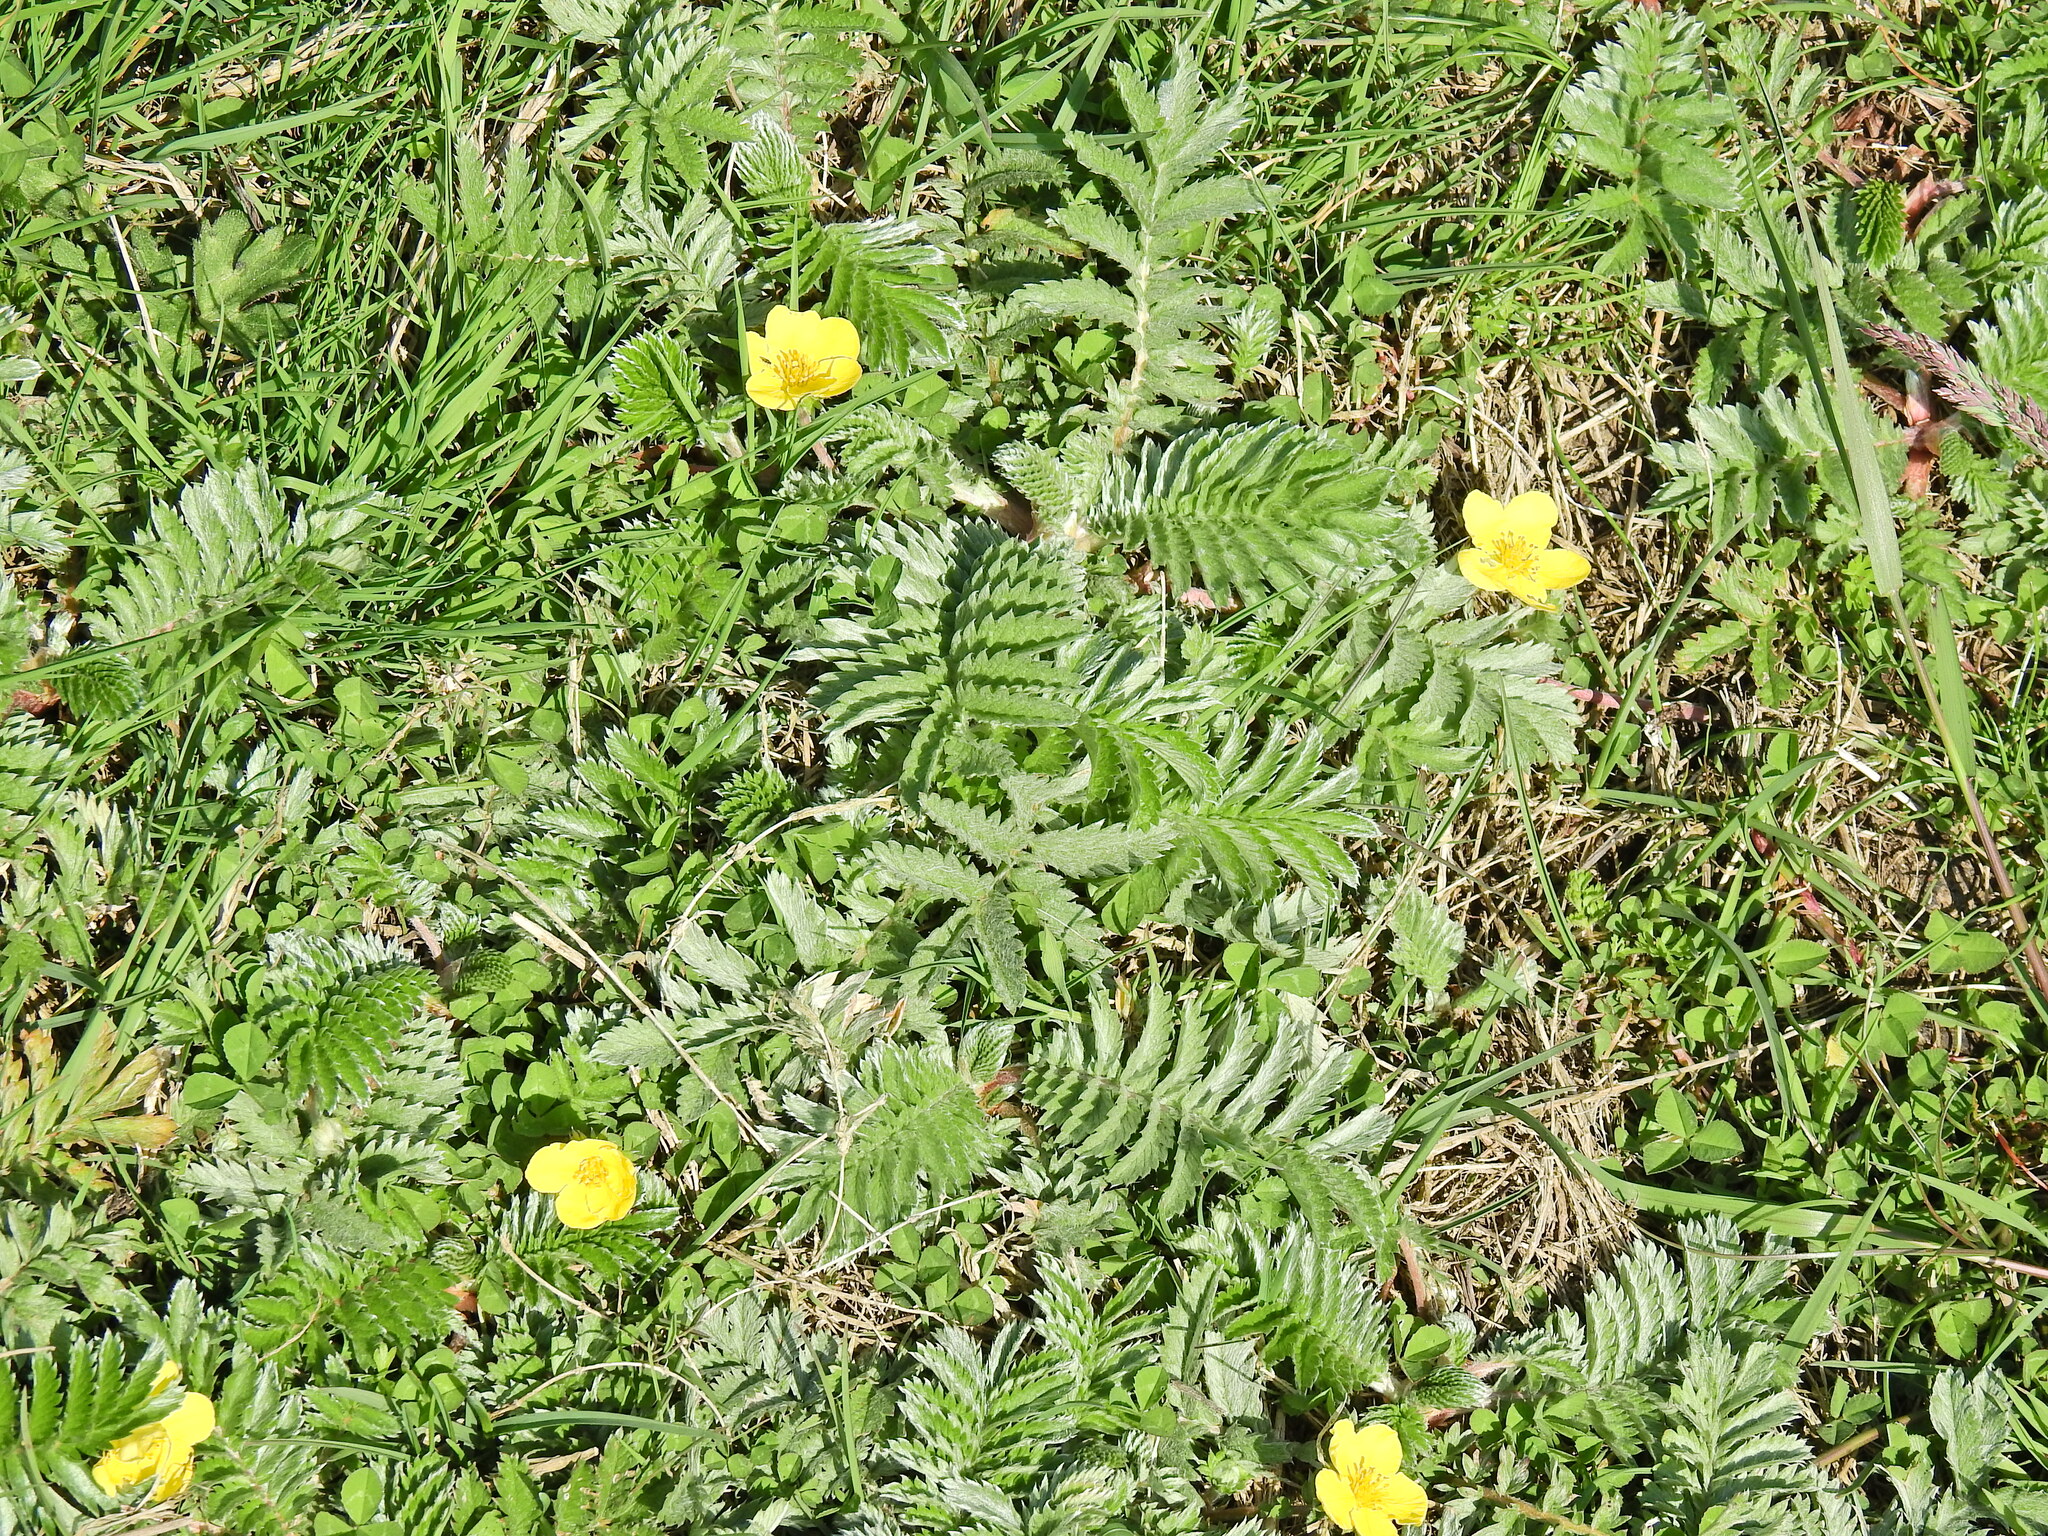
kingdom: Plantae
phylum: Tracheophyta
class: Magnoliopsida
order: Rosales
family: Rosaceae
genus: Argentina
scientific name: Argentina anserina
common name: Common silverweed
